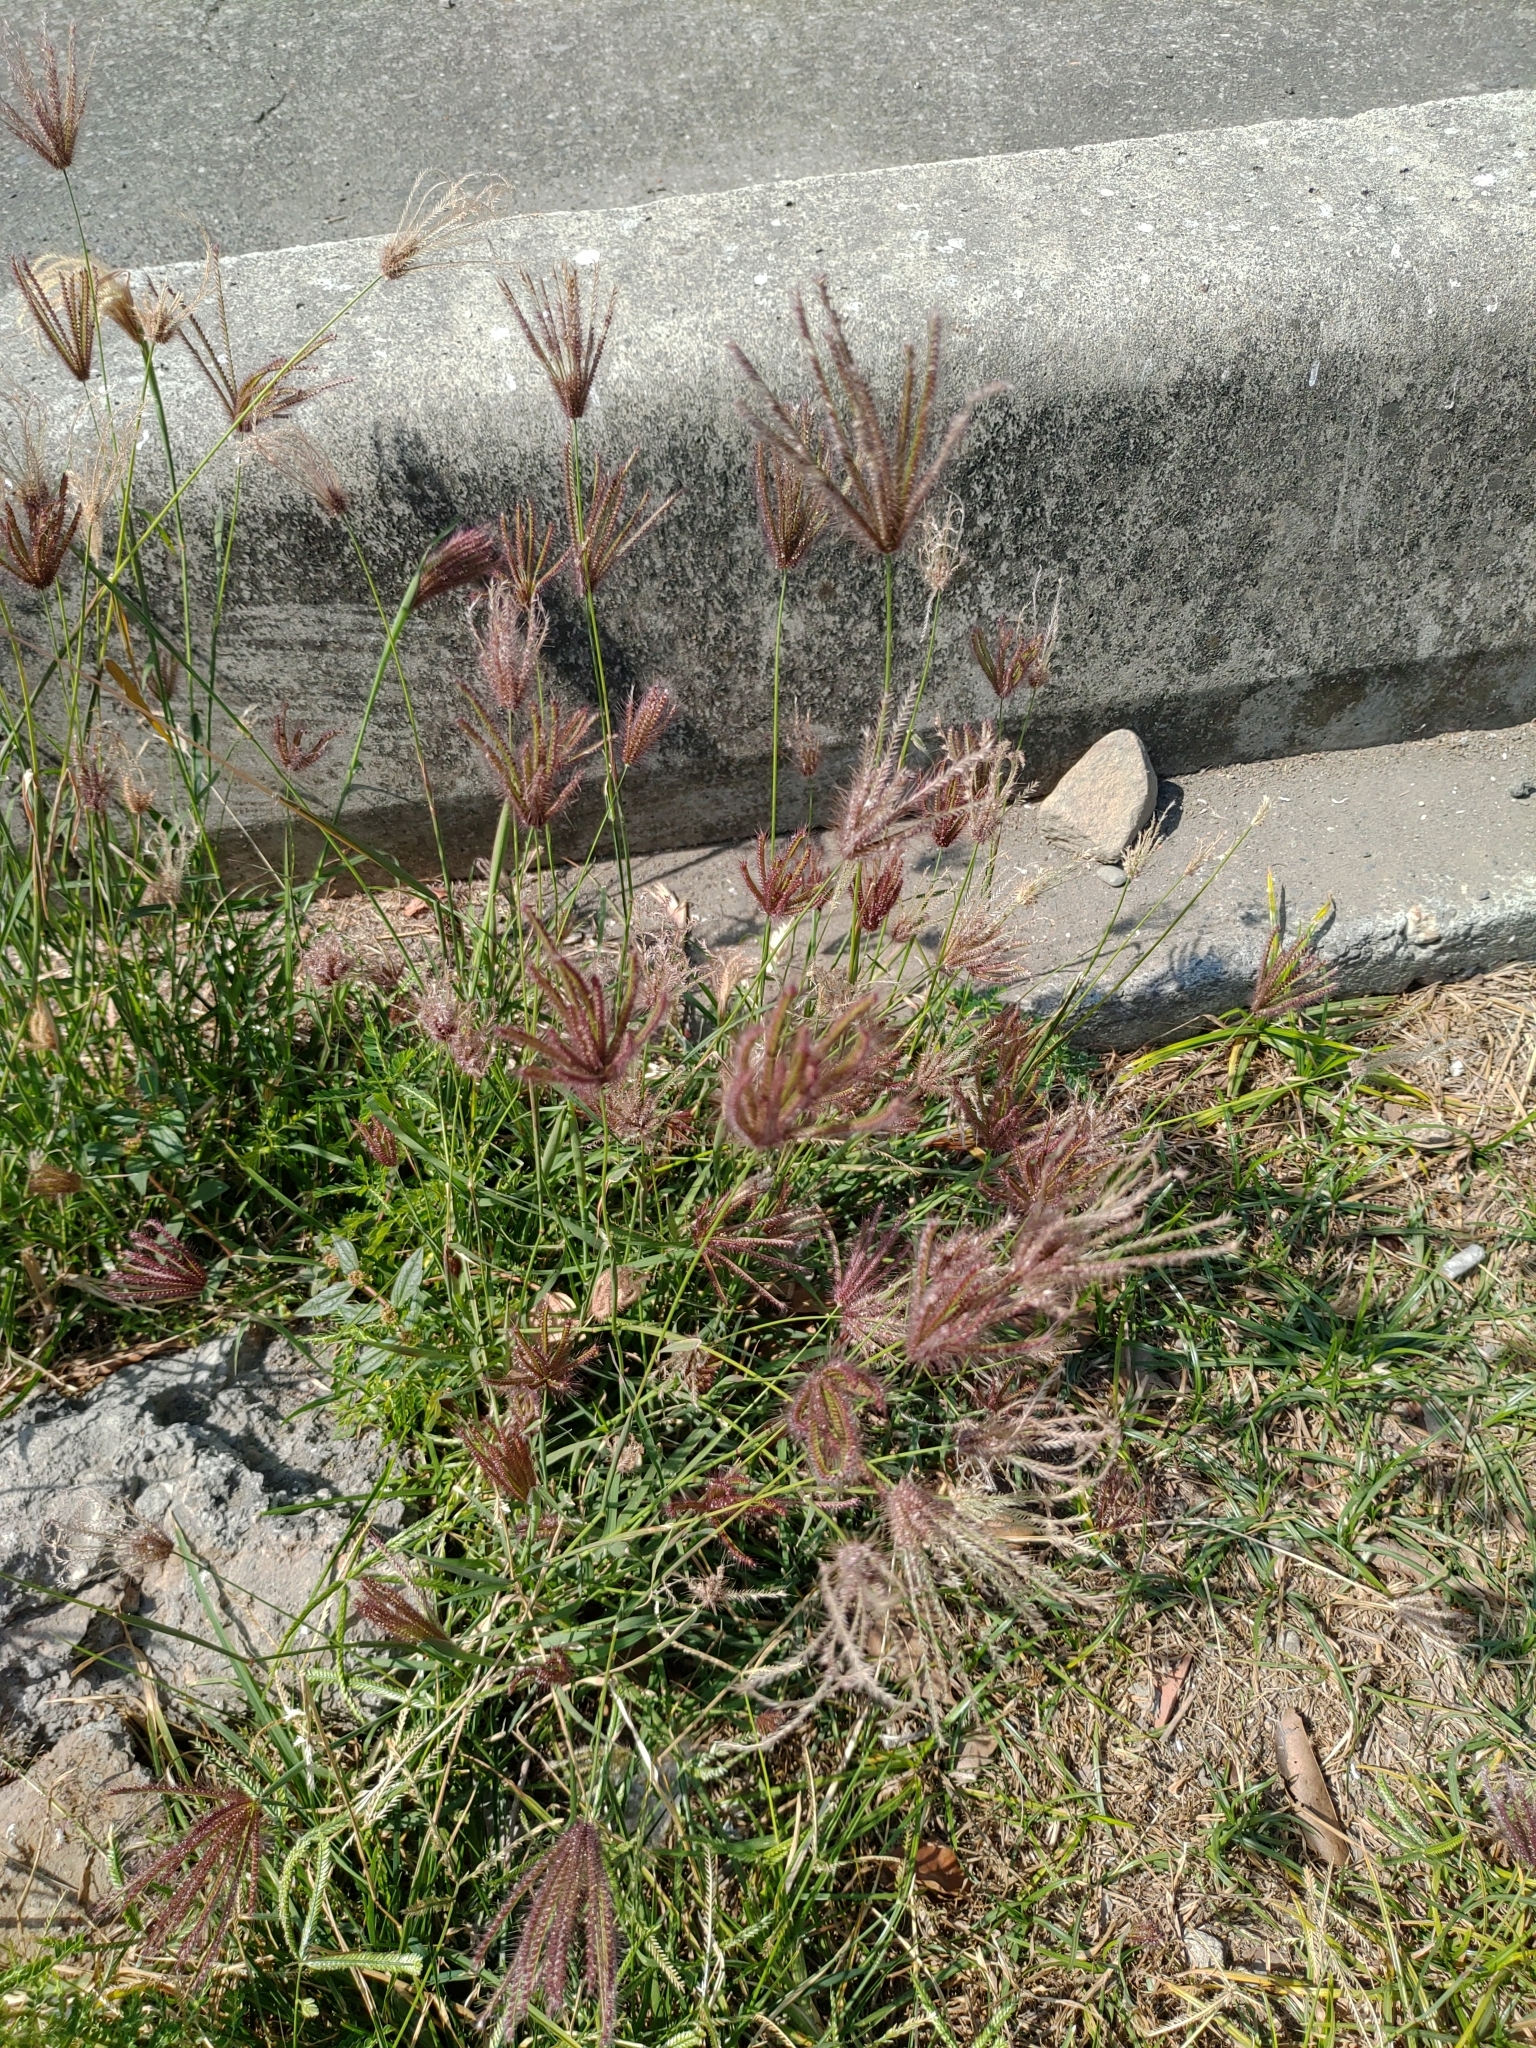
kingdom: Plantae
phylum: Tracheophyta
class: Liliopsida
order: Poales
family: Poaceae
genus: Chloris
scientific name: Chloris barbata
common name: Swollen fingergrass
